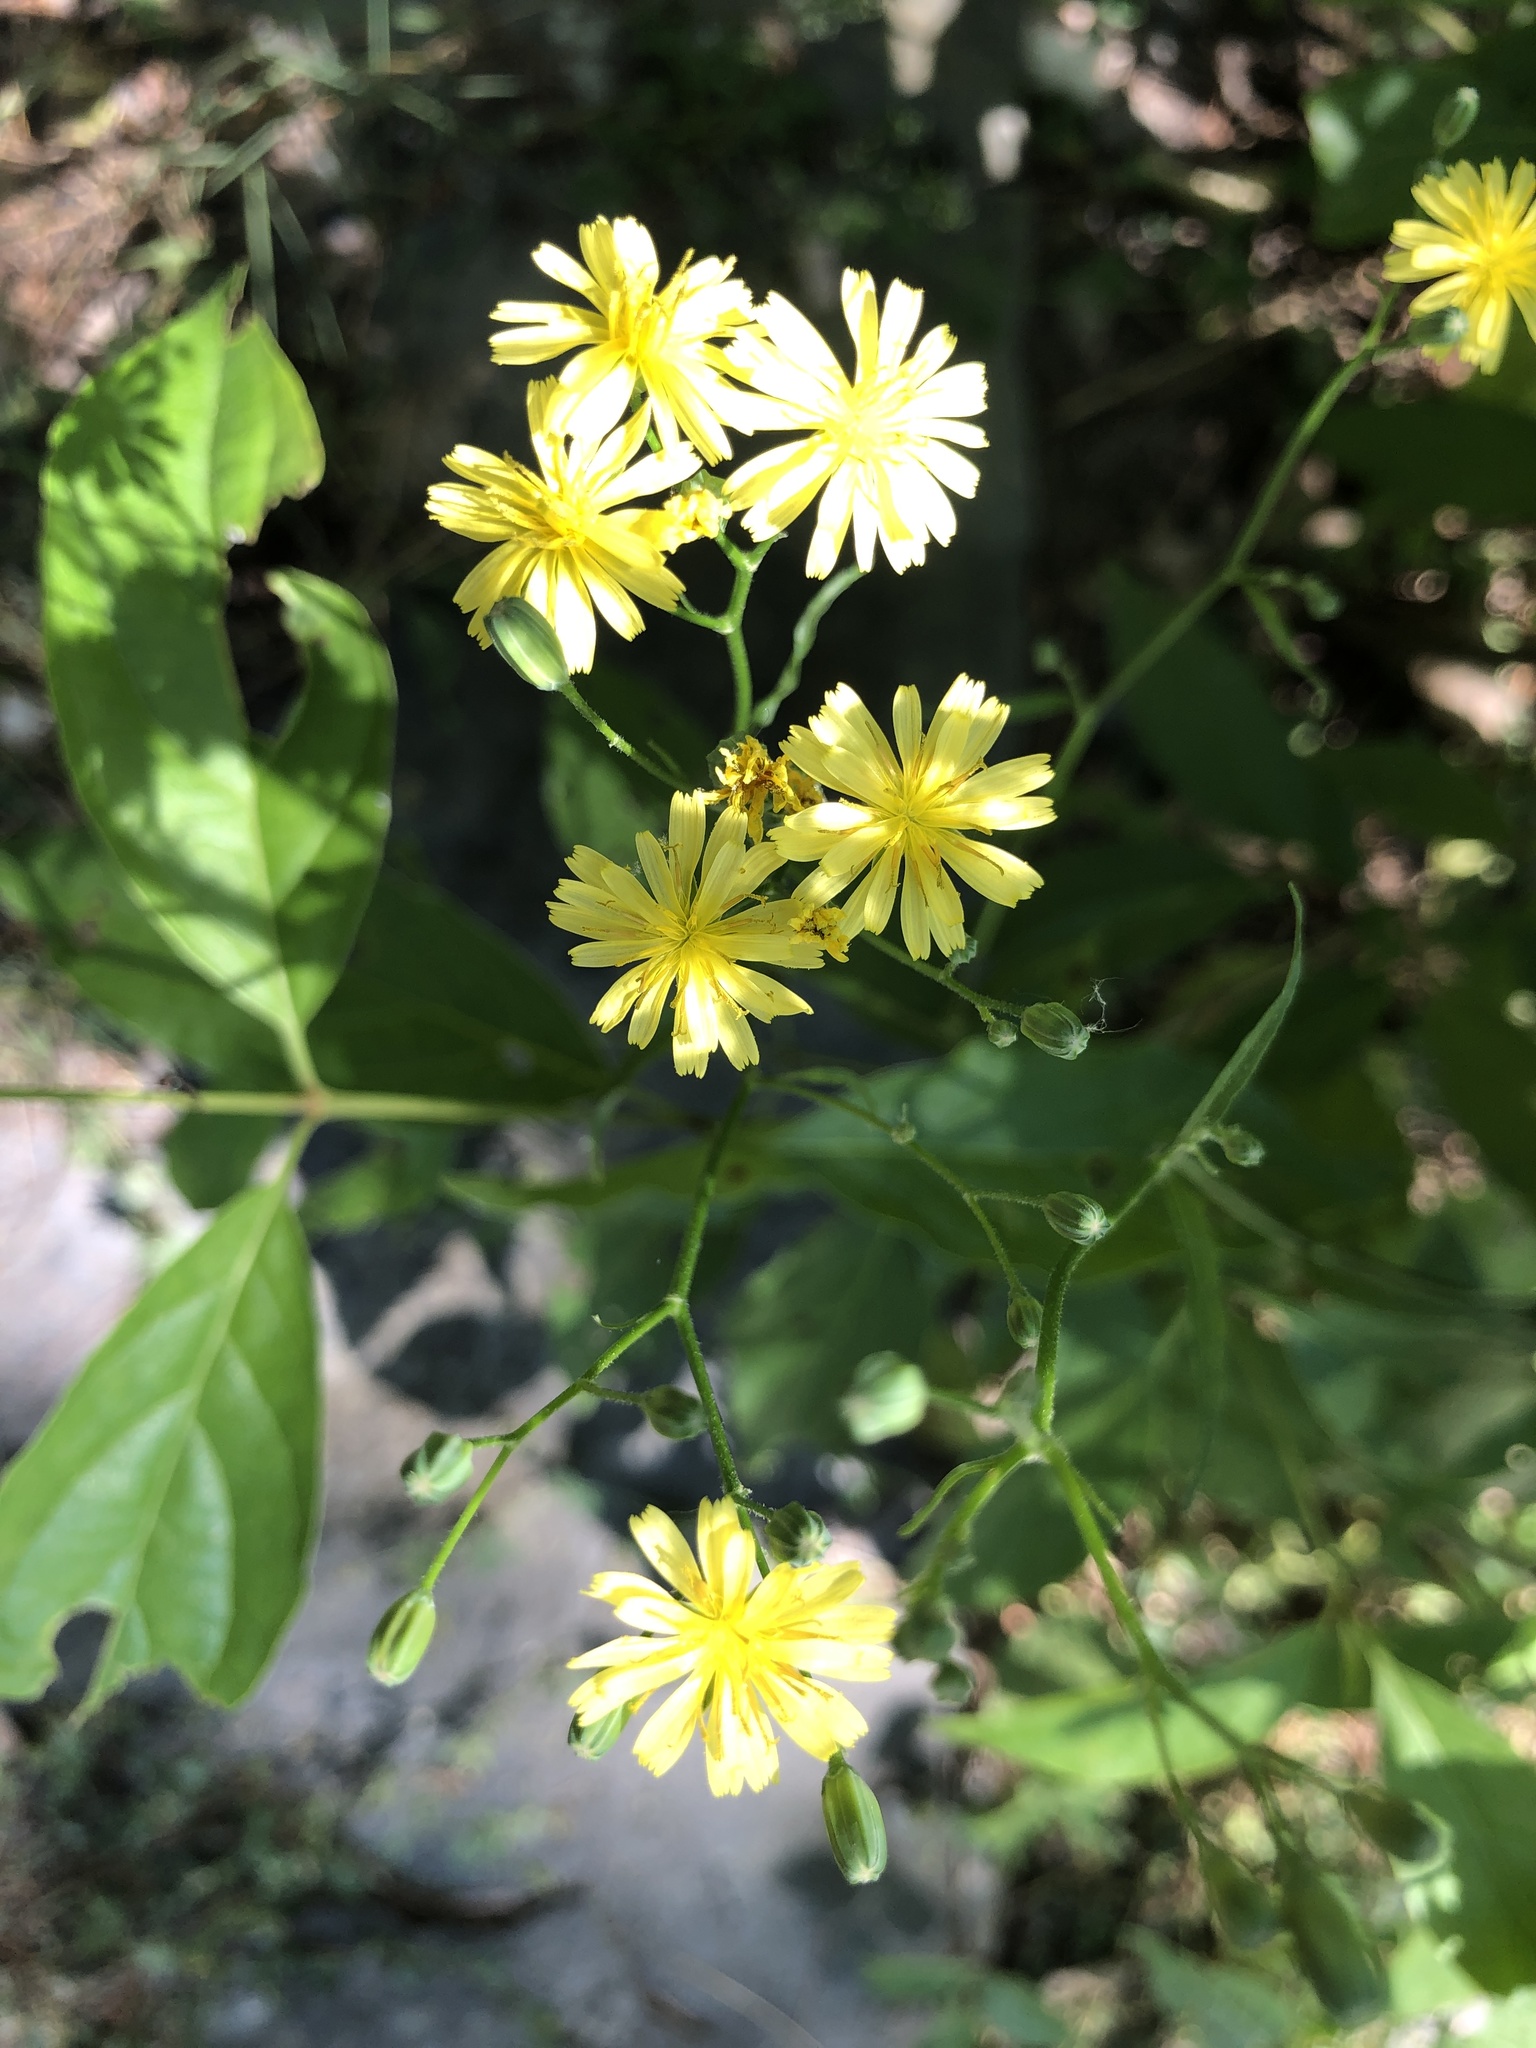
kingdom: Plantae
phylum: Tracheophyta
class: Magnoliopsida
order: Asterales
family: Asteraceae
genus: Lapsana
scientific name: Lapsana communis
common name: Nipplewort
